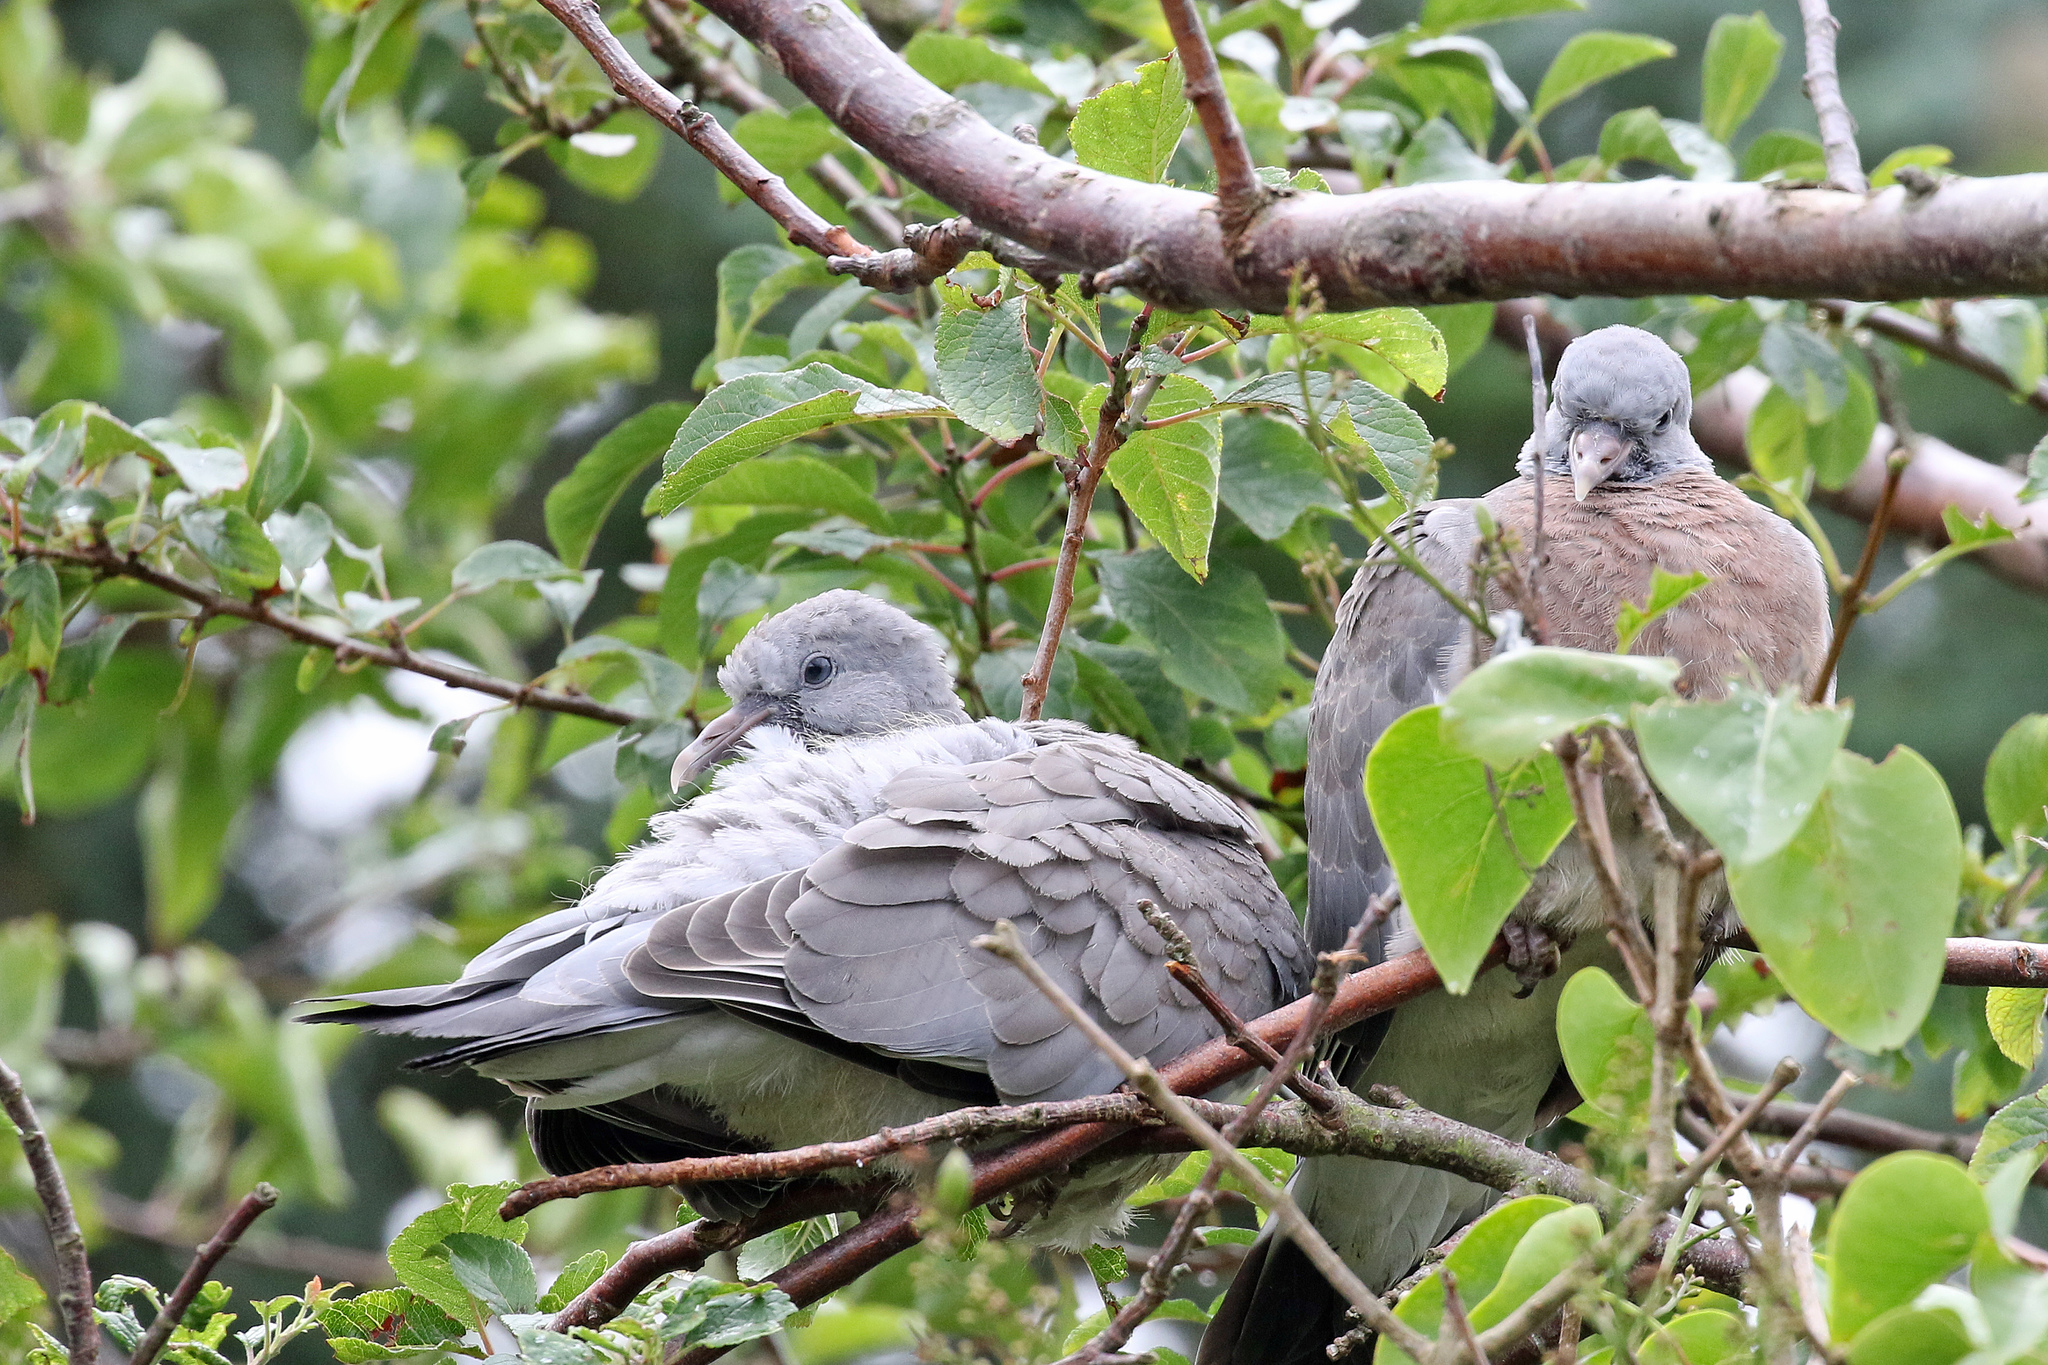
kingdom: Animalia
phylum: Chordata
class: Aves
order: Columbiformes
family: Columbidae
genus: Columba
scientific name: Columba palumbus
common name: Common wood pigeon
